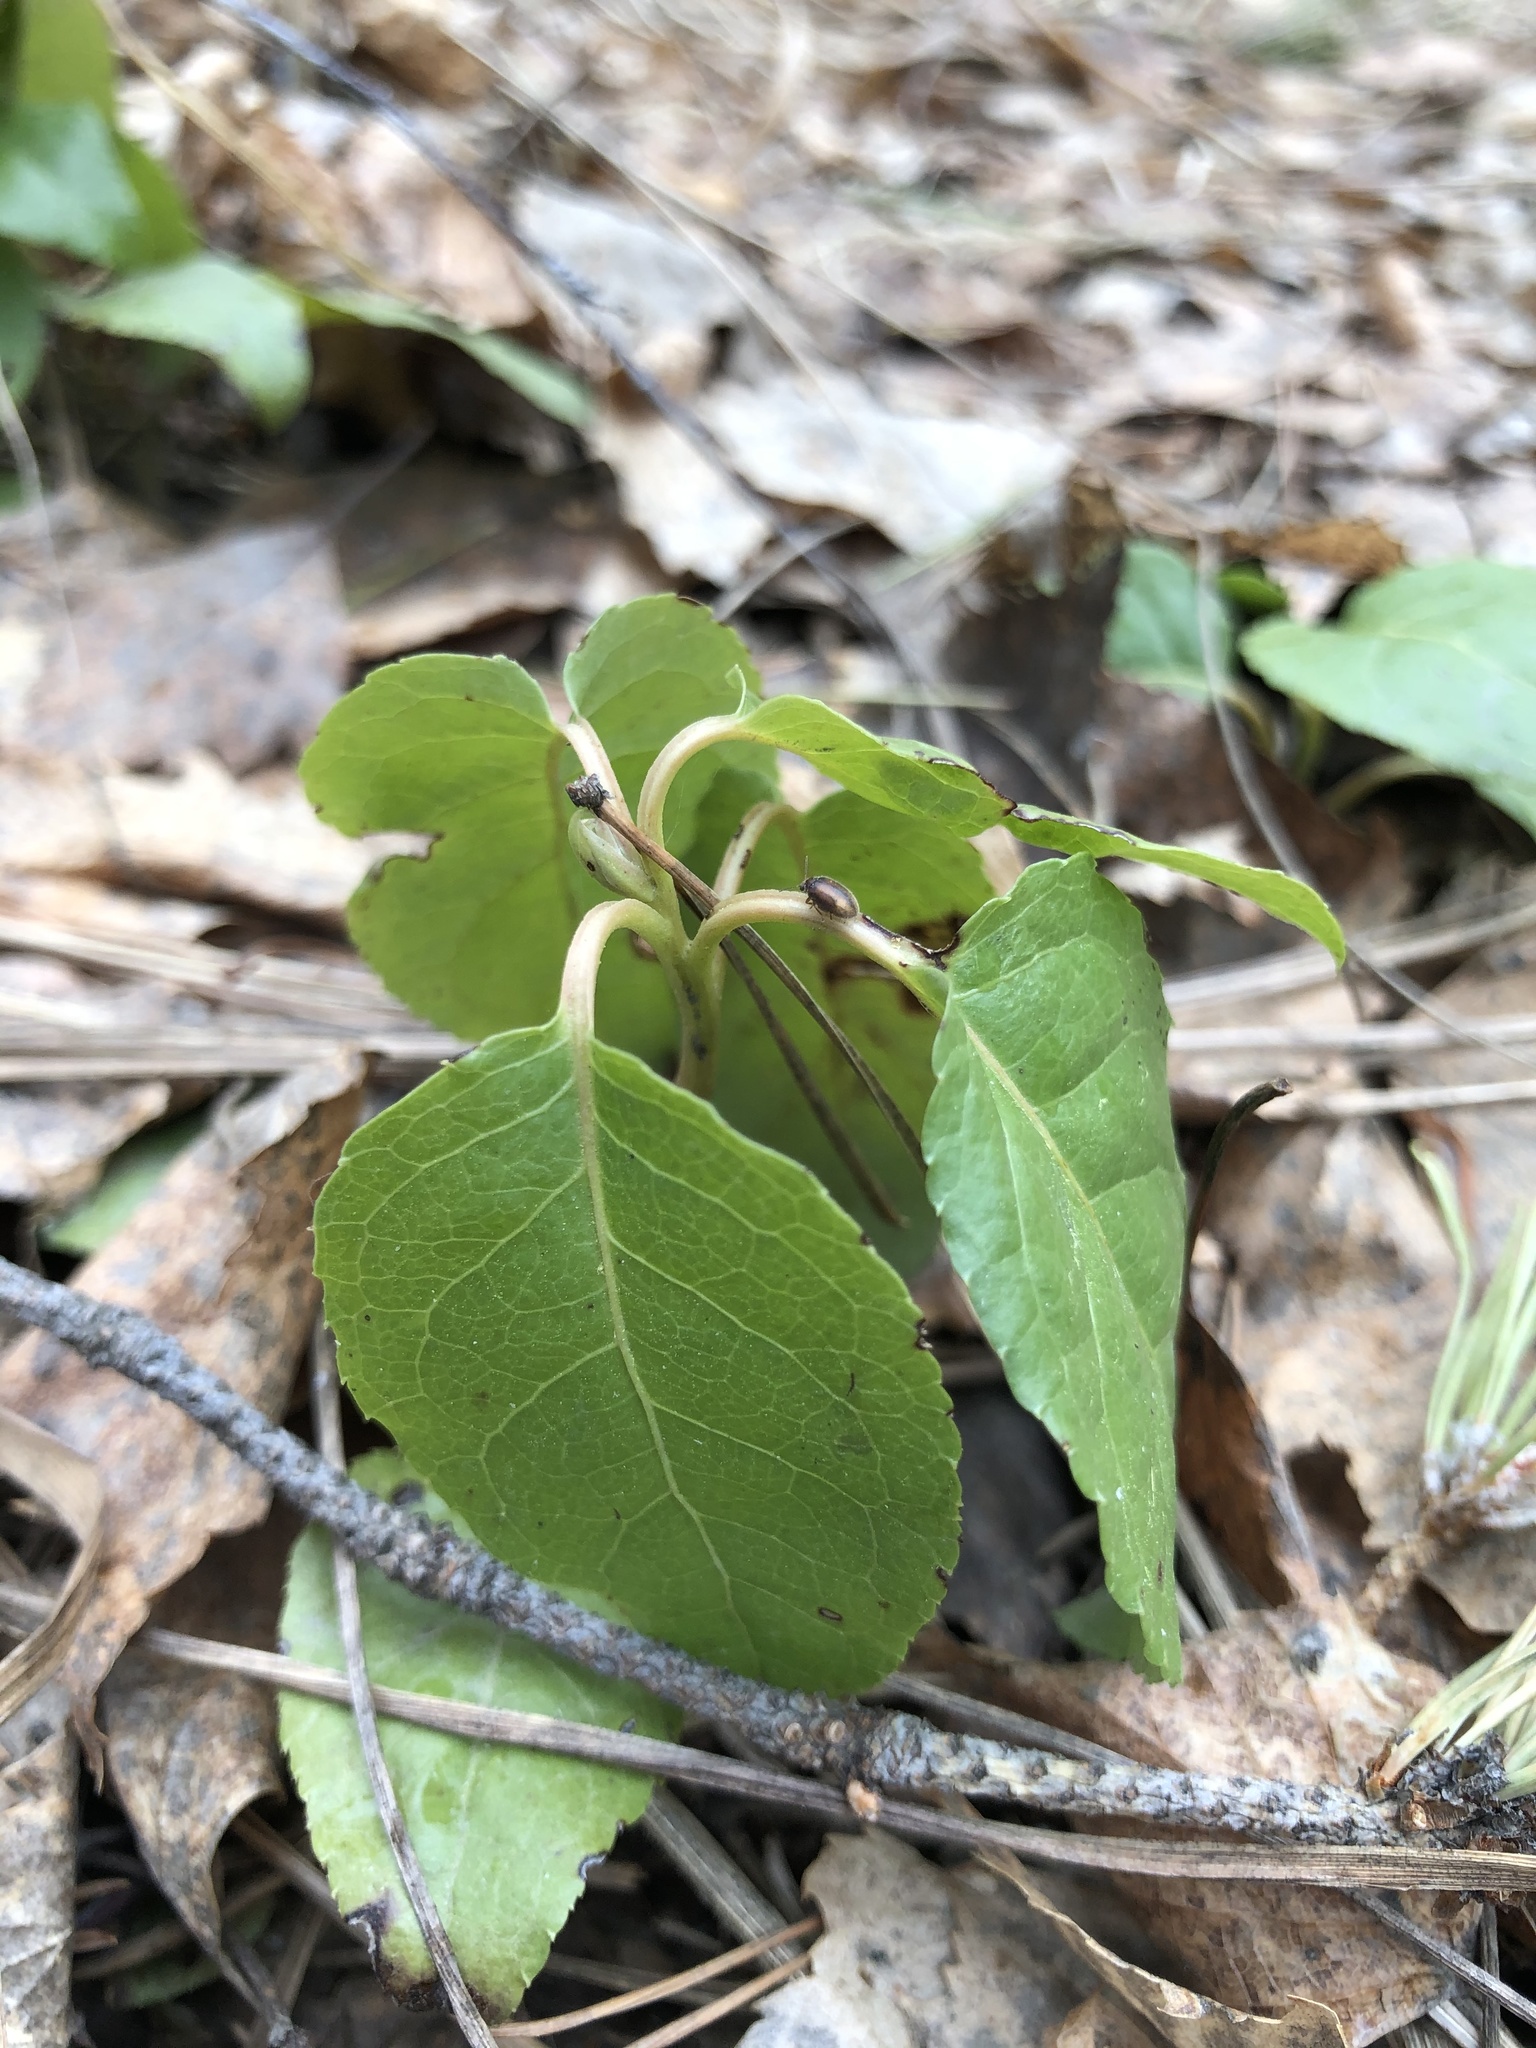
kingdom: Plantae
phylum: Tracheophyta
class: Magnoliopsida
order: Ericales
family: Ericaceae
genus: Orthilia
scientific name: Orthilia secunda
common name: One-sided orthilia
